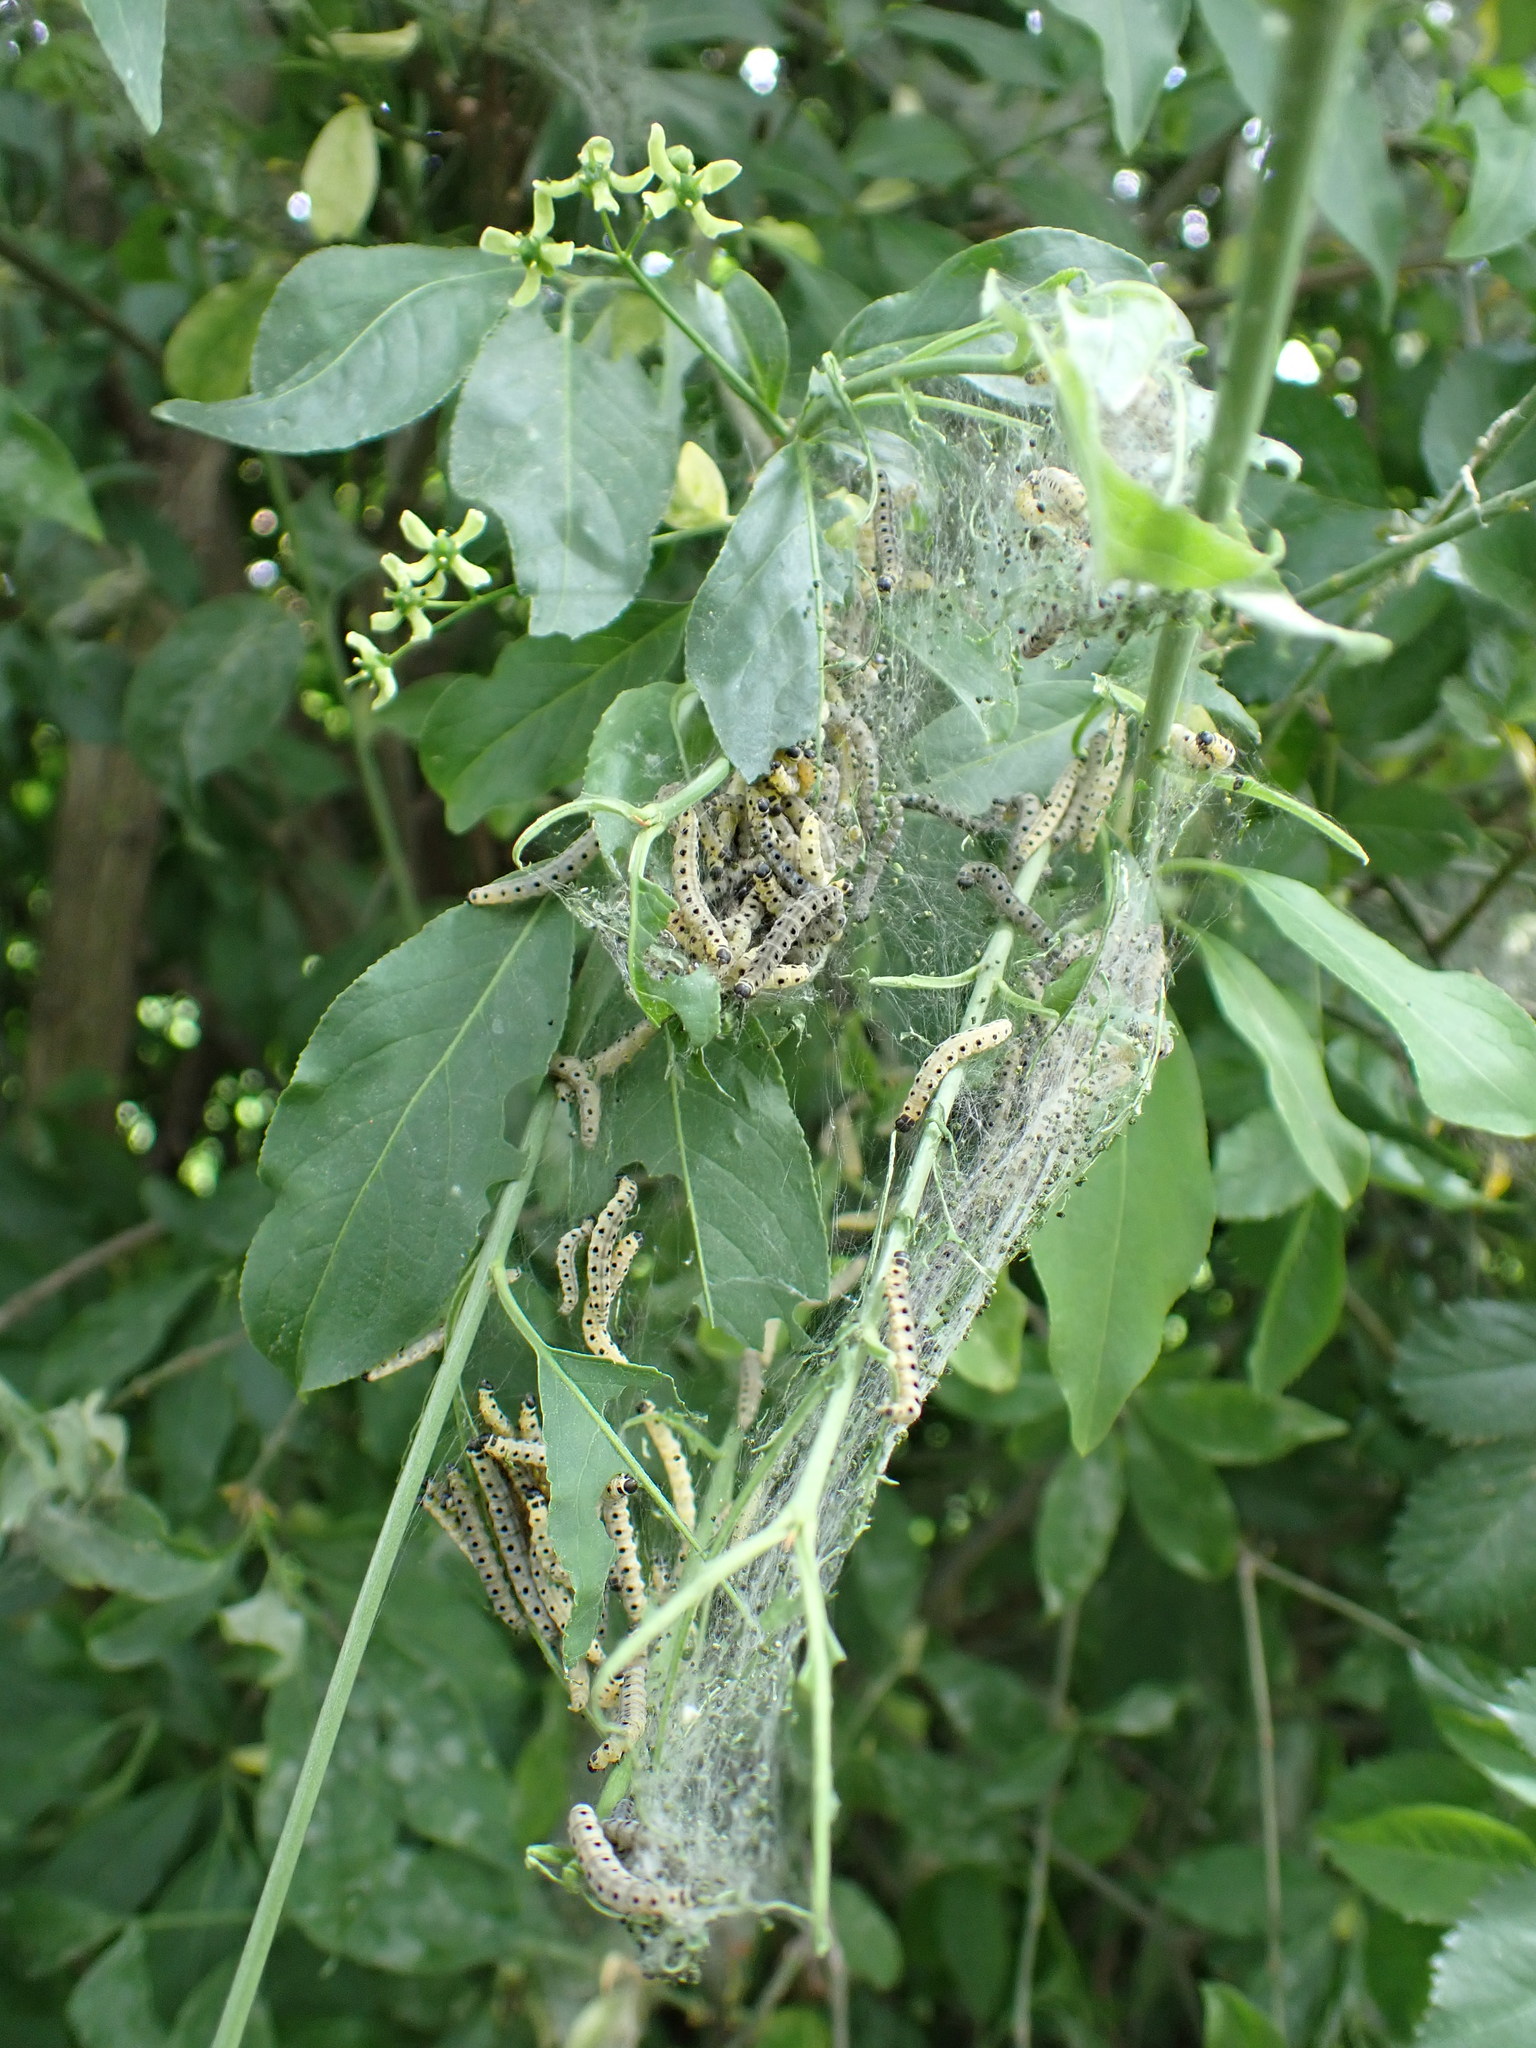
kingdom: Animalia
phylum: Arthropoda
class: Insecta
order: Lepidoptera
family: Yponomeutidae
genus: Yponomeuta
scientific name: Yponomeuta cagnagellus
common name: Spindle ermine
